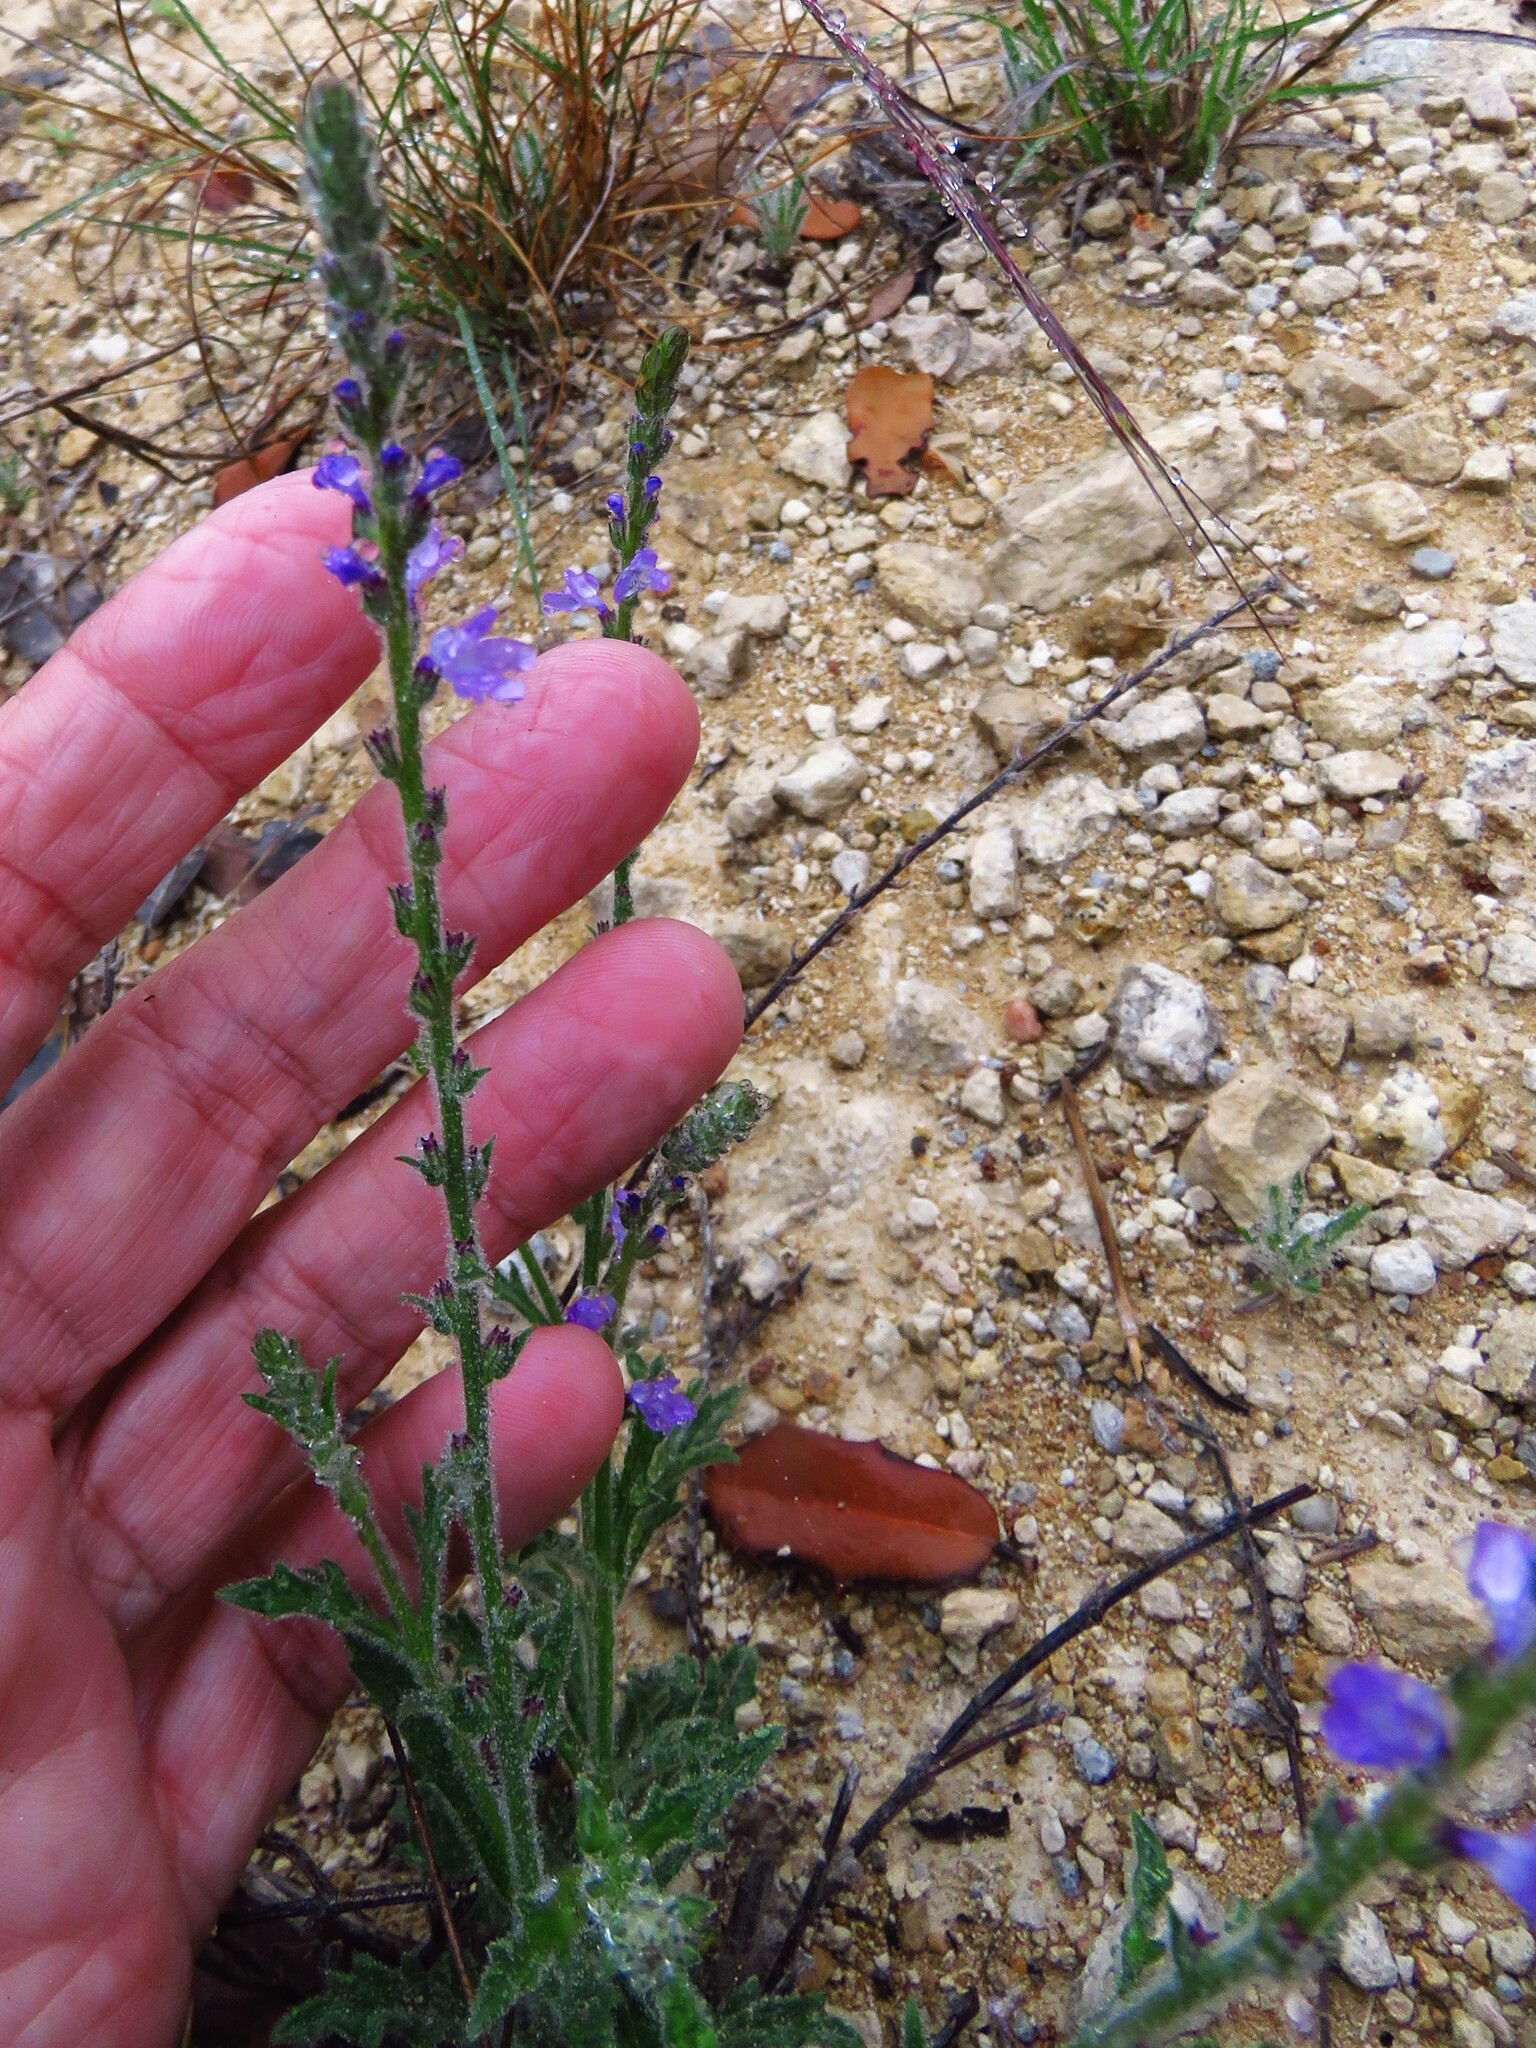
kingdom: Plantae
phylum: Tracheophyta
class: Magnoliopsida
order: Lamiales
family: Verbenaceae
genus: Verbena
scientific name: Verbena canescens
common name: Gray vervain
